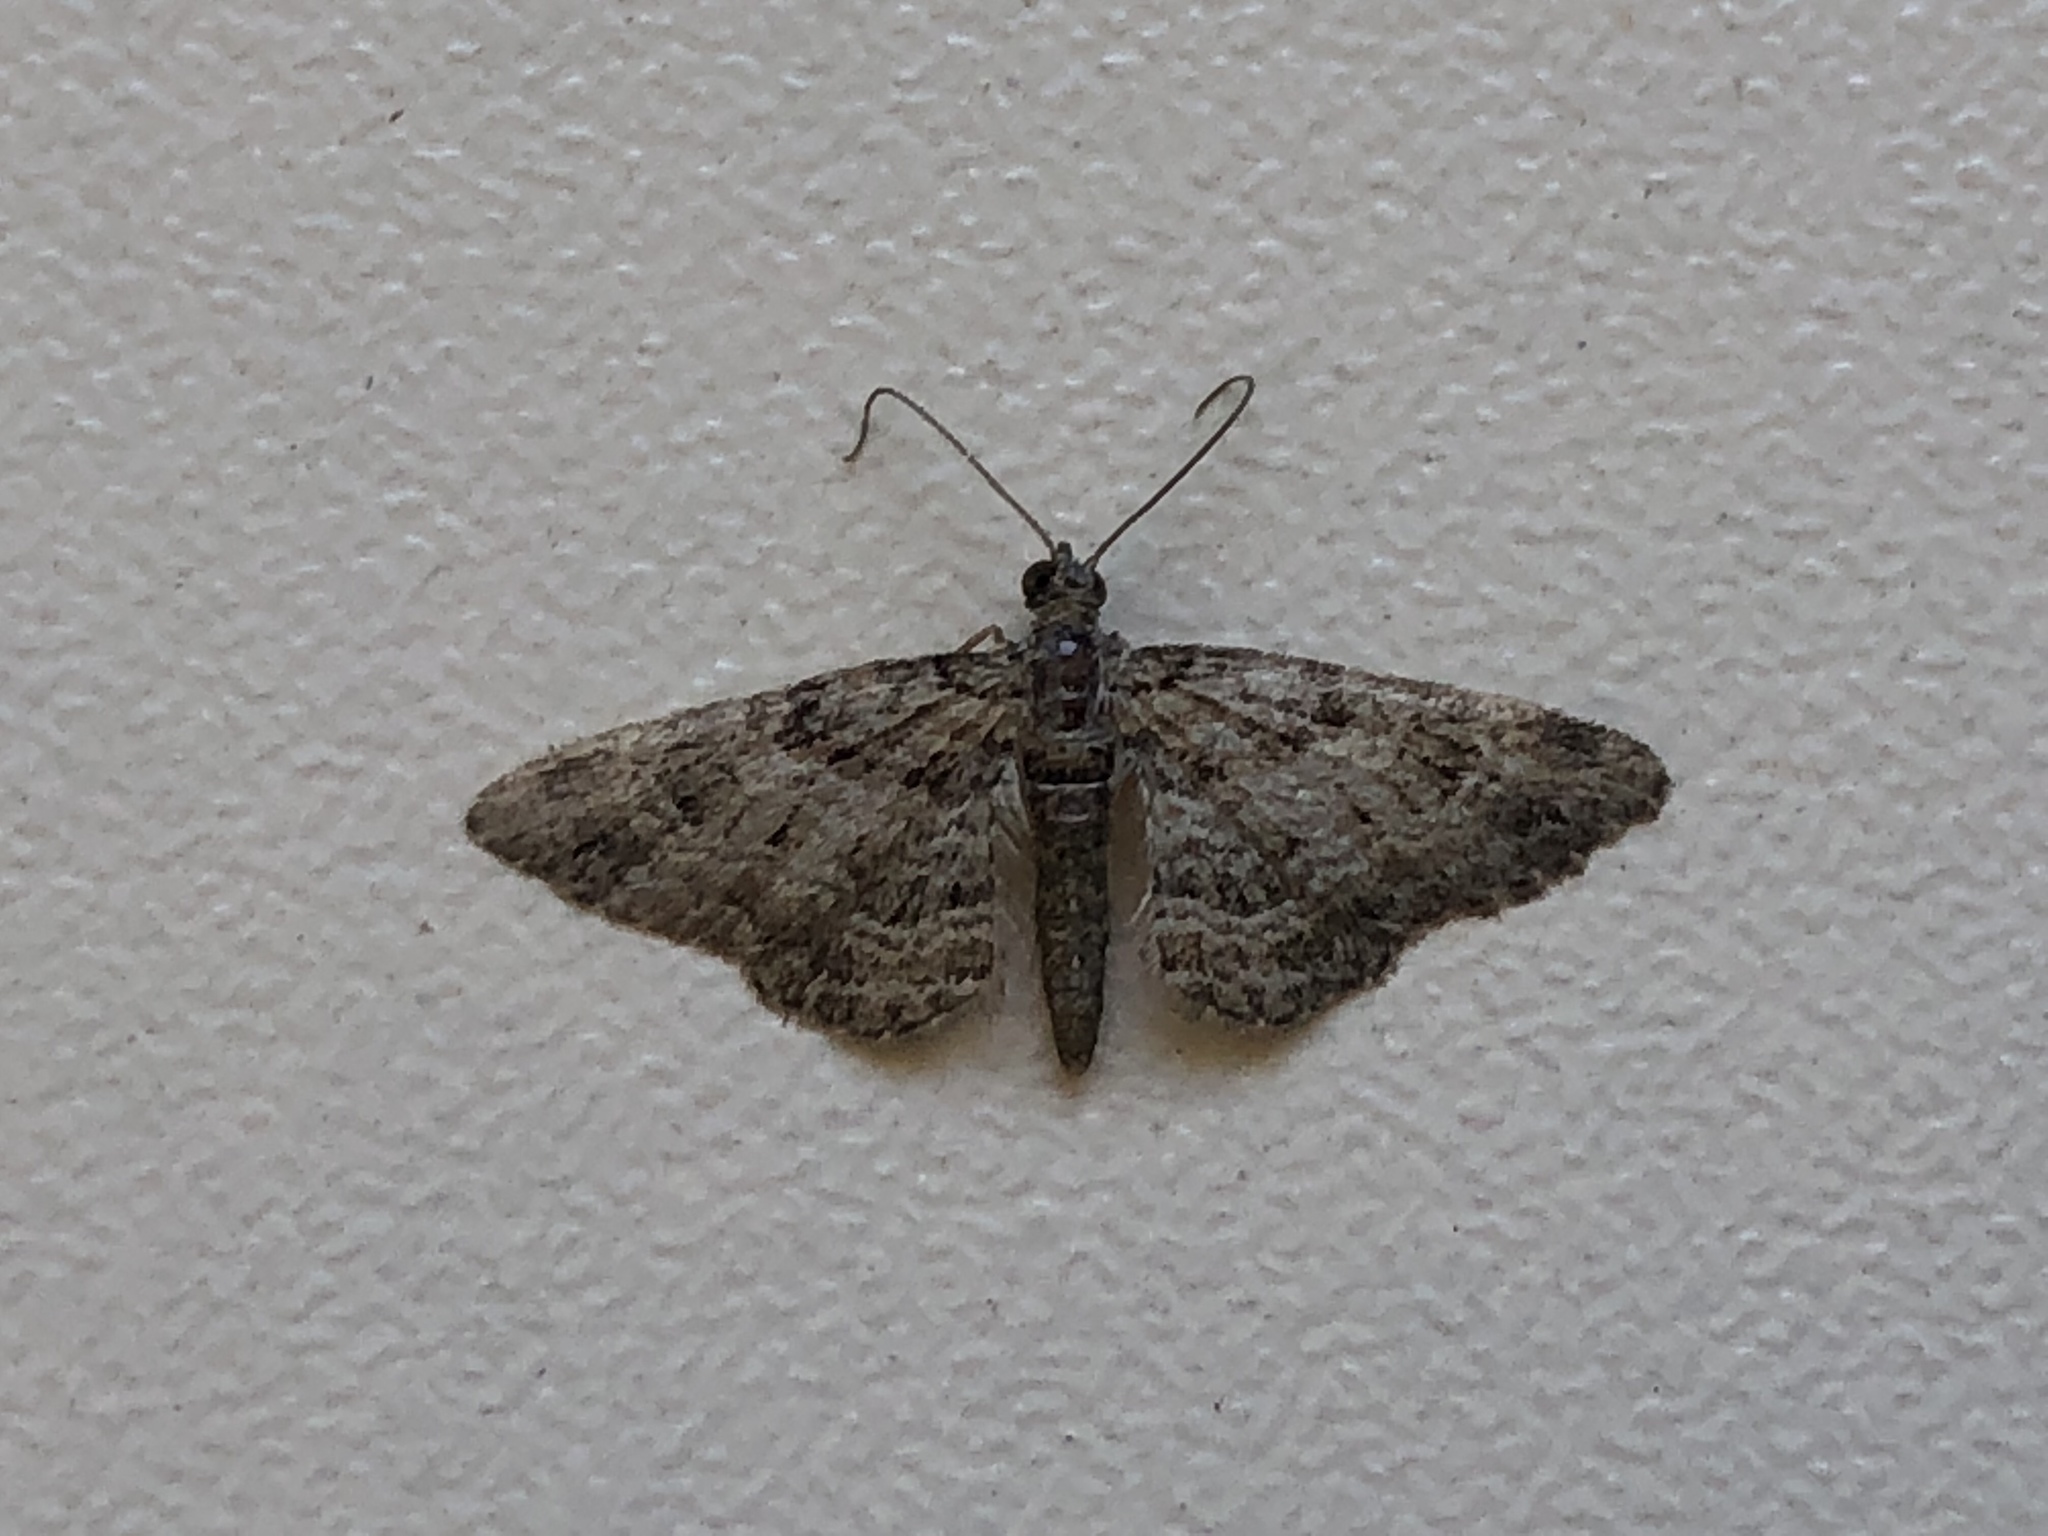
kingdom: Animalia
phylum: Arthropoda
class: Insecta
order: Lepidoptera
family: Geometridae
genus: Gymnoscelis
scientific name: Gymnoscelis rufifasciata
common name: Double-striped pug
